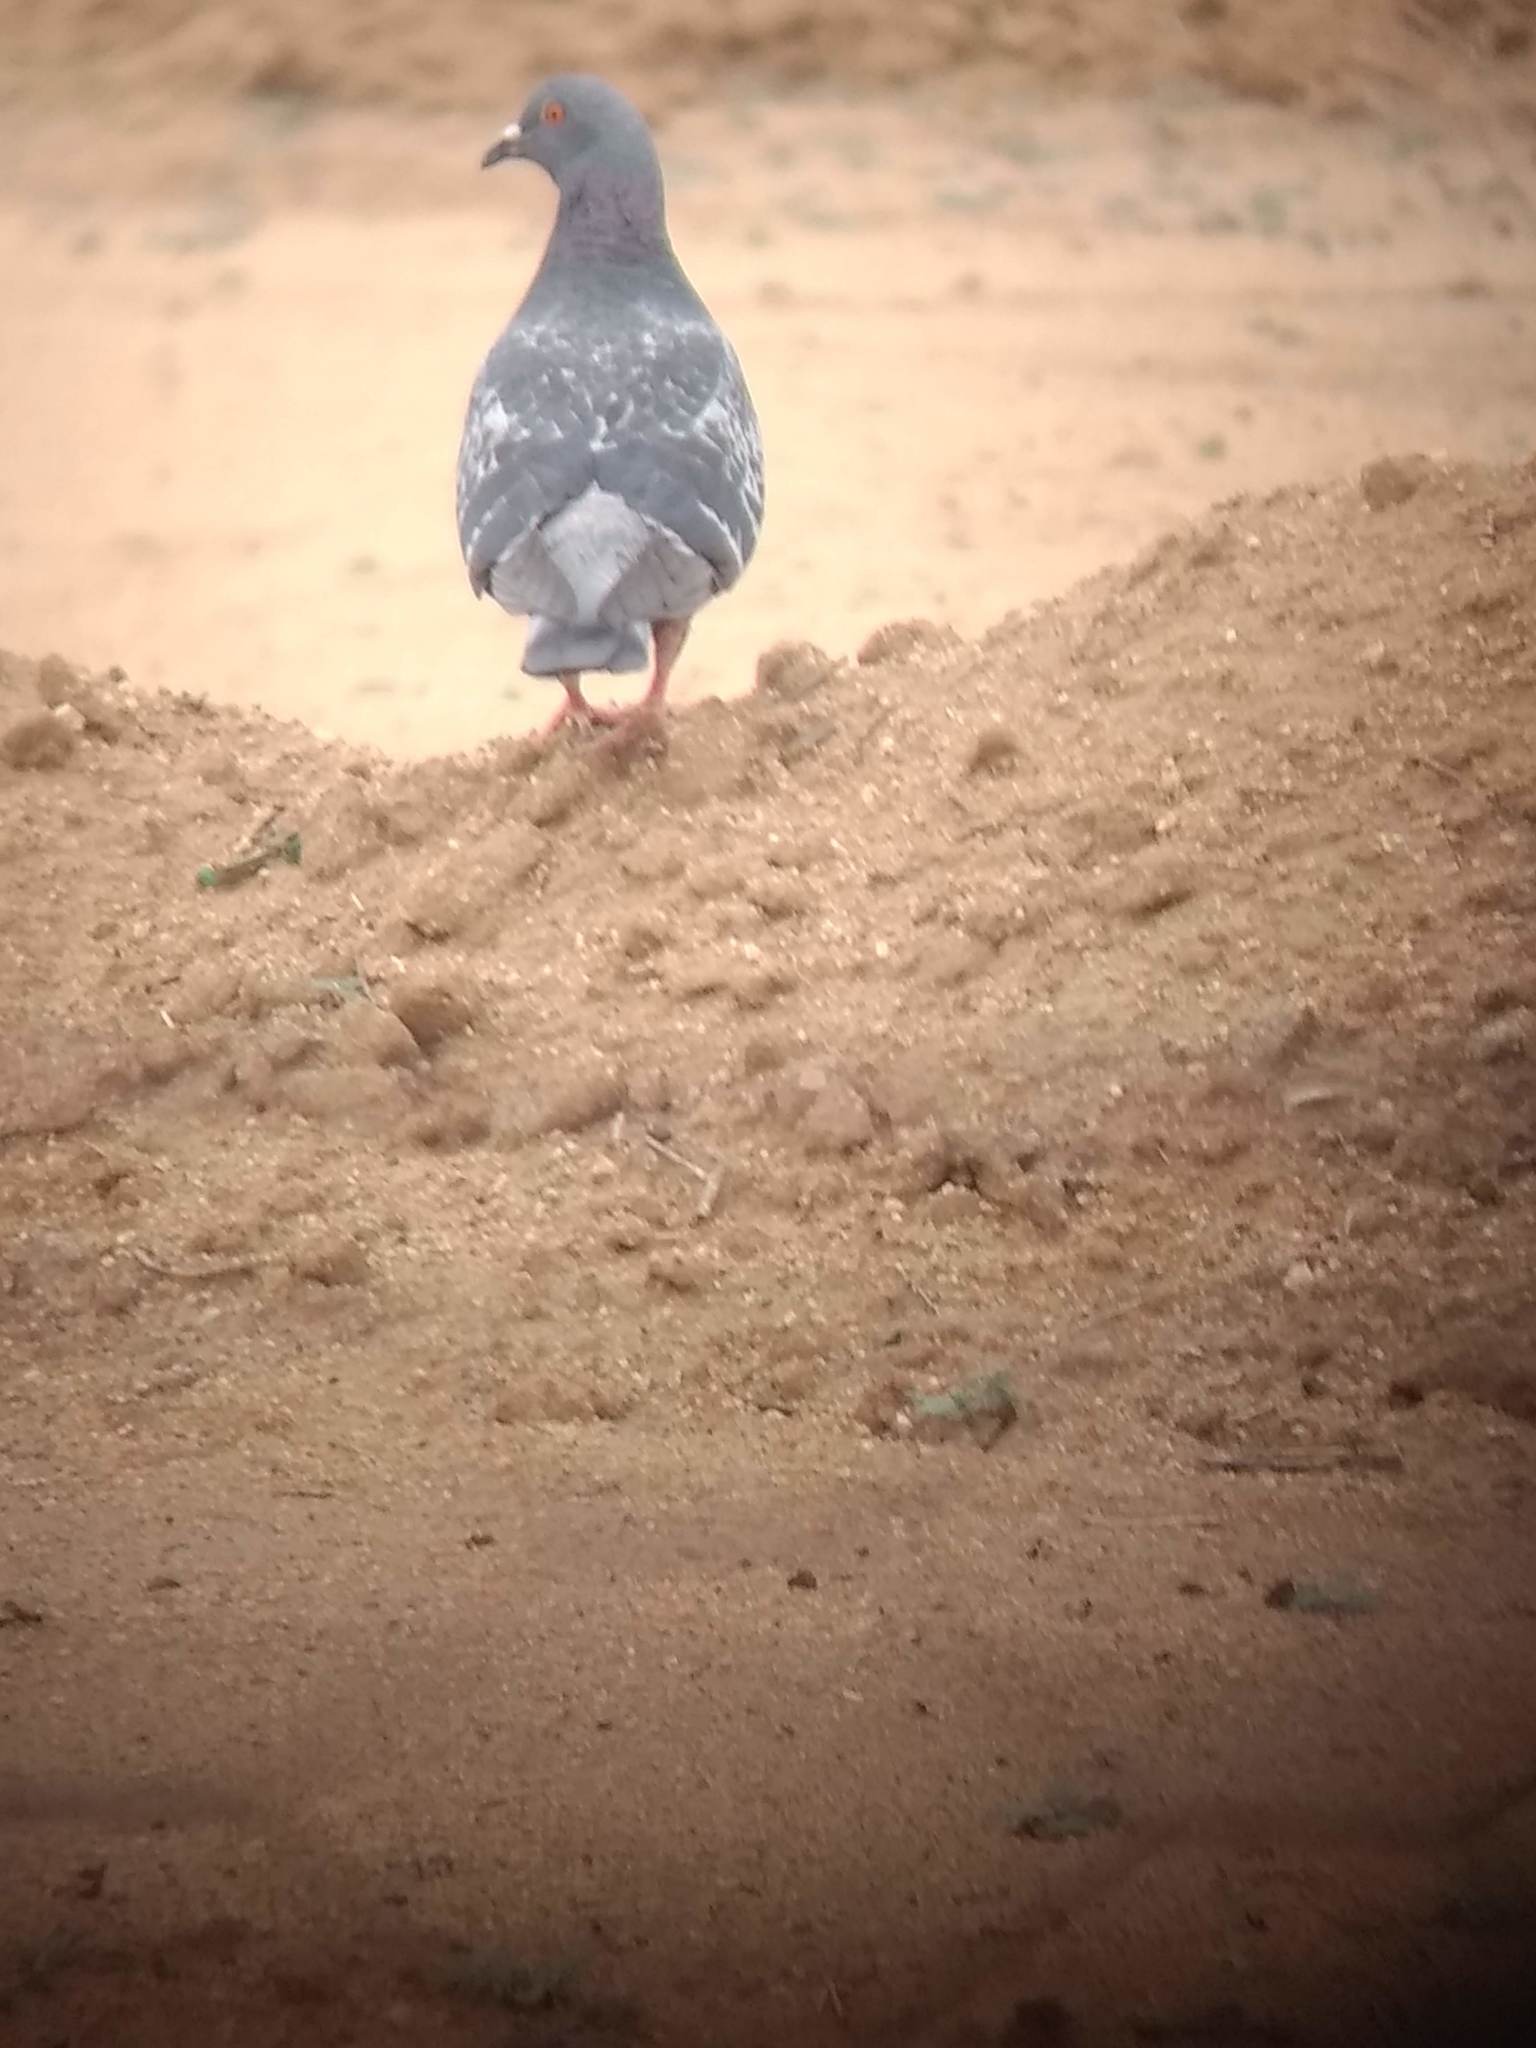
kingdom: Animalia
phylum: Chordata
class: Aves
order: Columbiformes
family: Columbidae
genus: Columba
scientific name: Columba livia
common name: Rock pigeon
